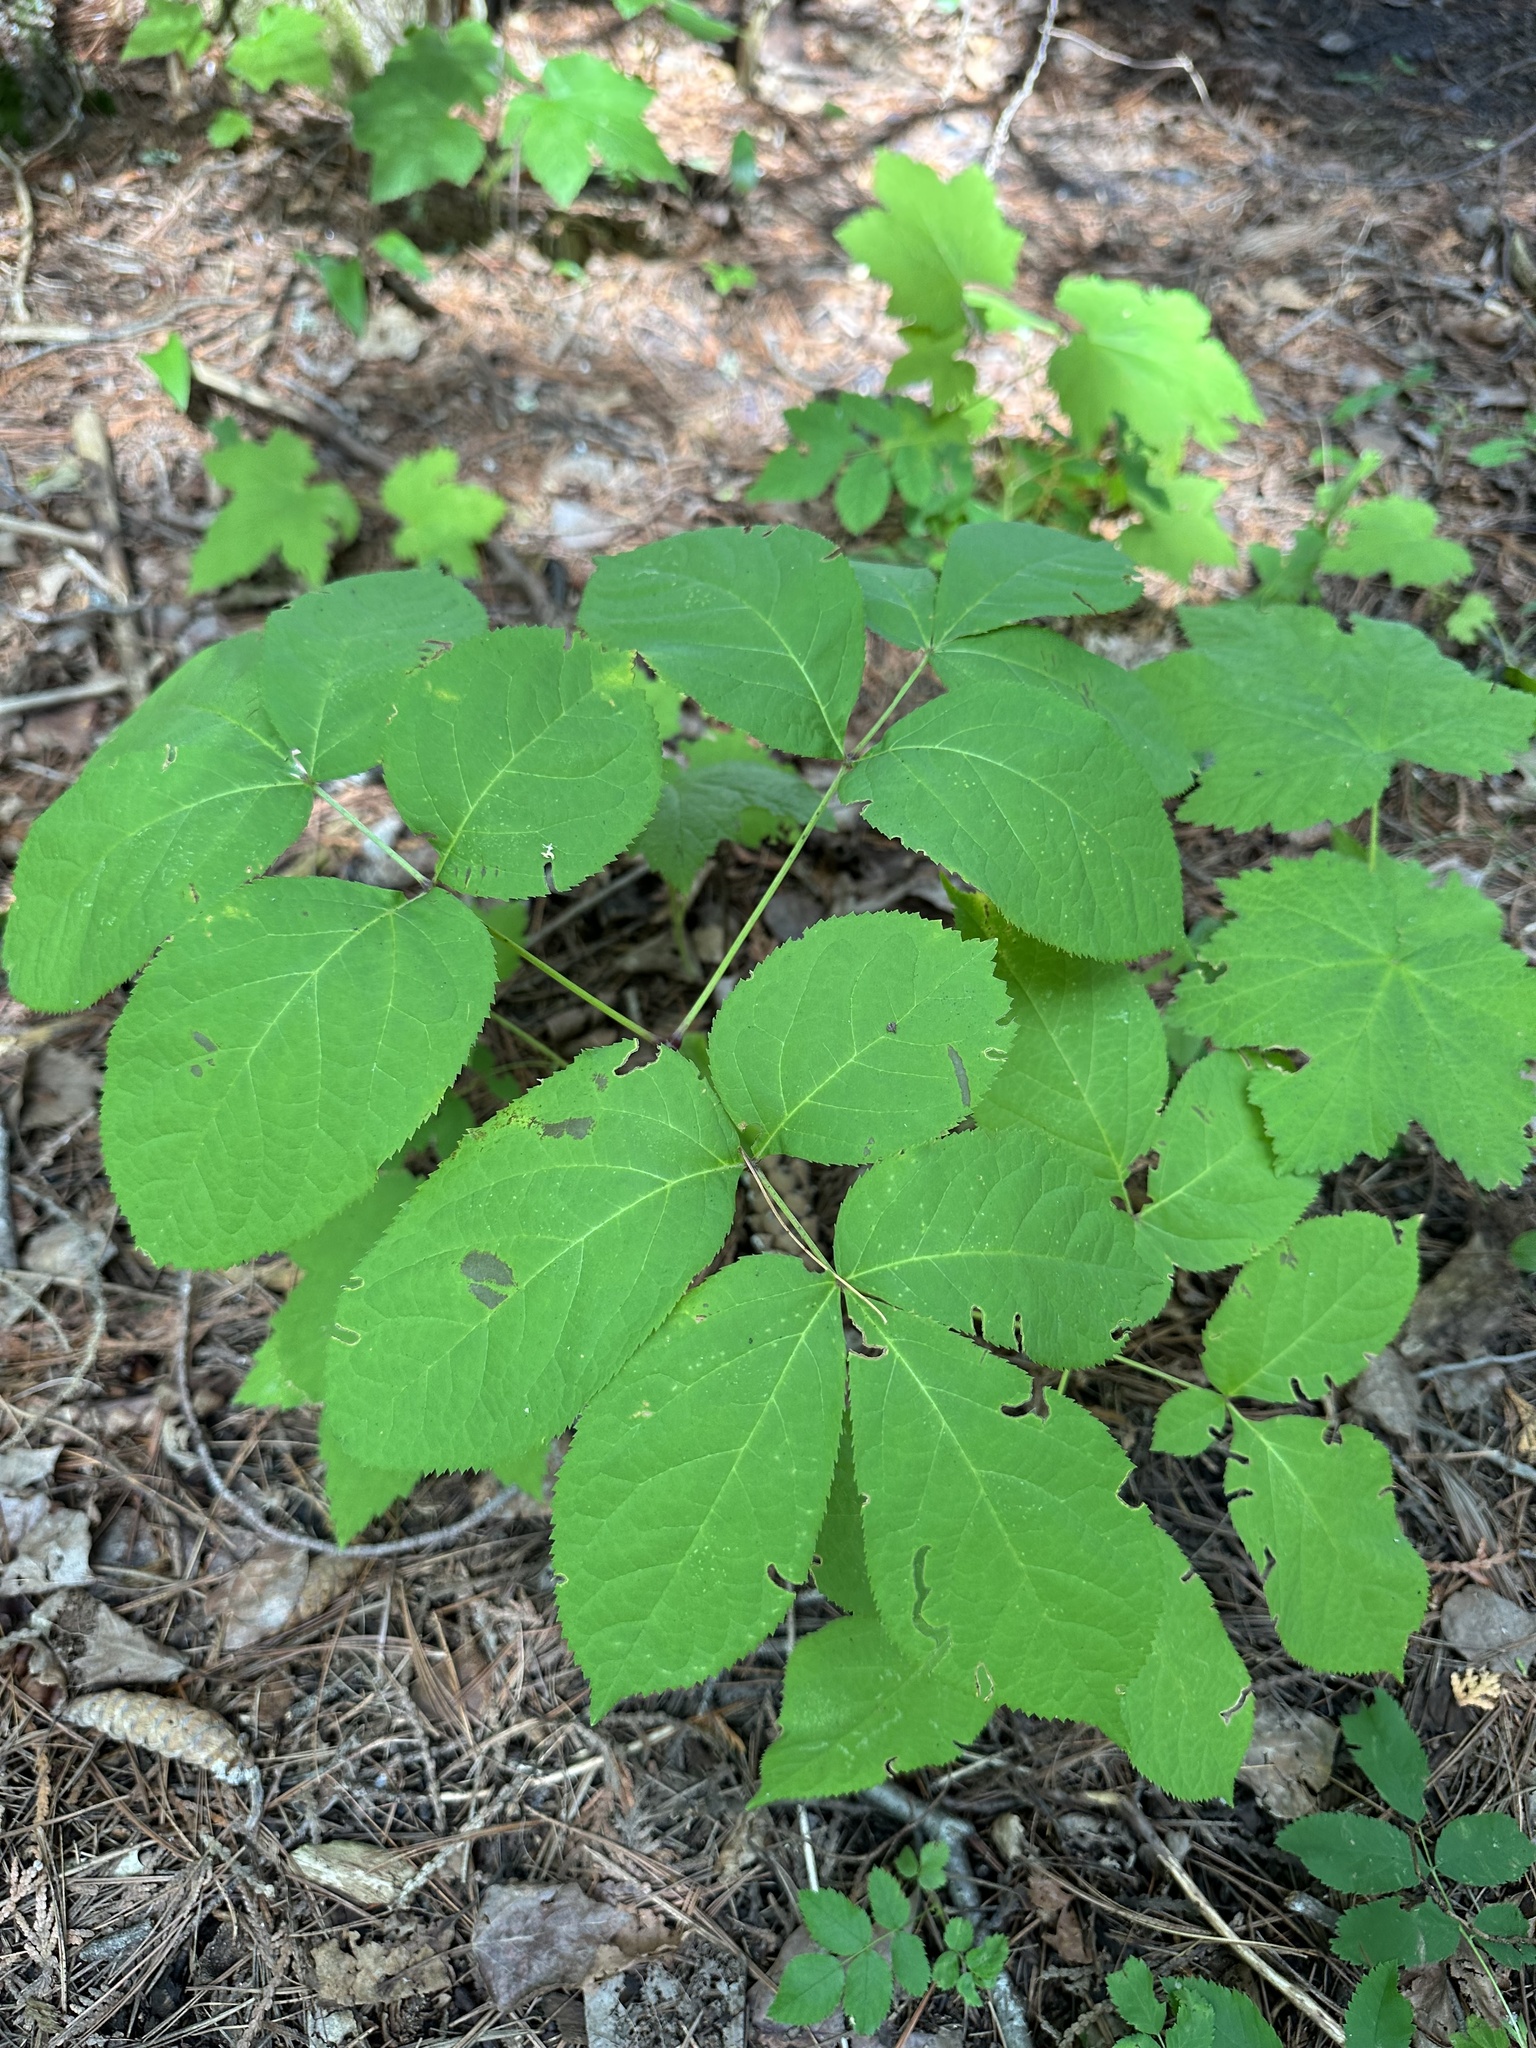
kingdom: Plantae
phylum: Tracheophyta
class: Magnoliopsida
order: Apiales
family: Araliaceae
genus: Aralia
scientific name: Aralia nudicaulis
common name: Wild sarsaparilla
